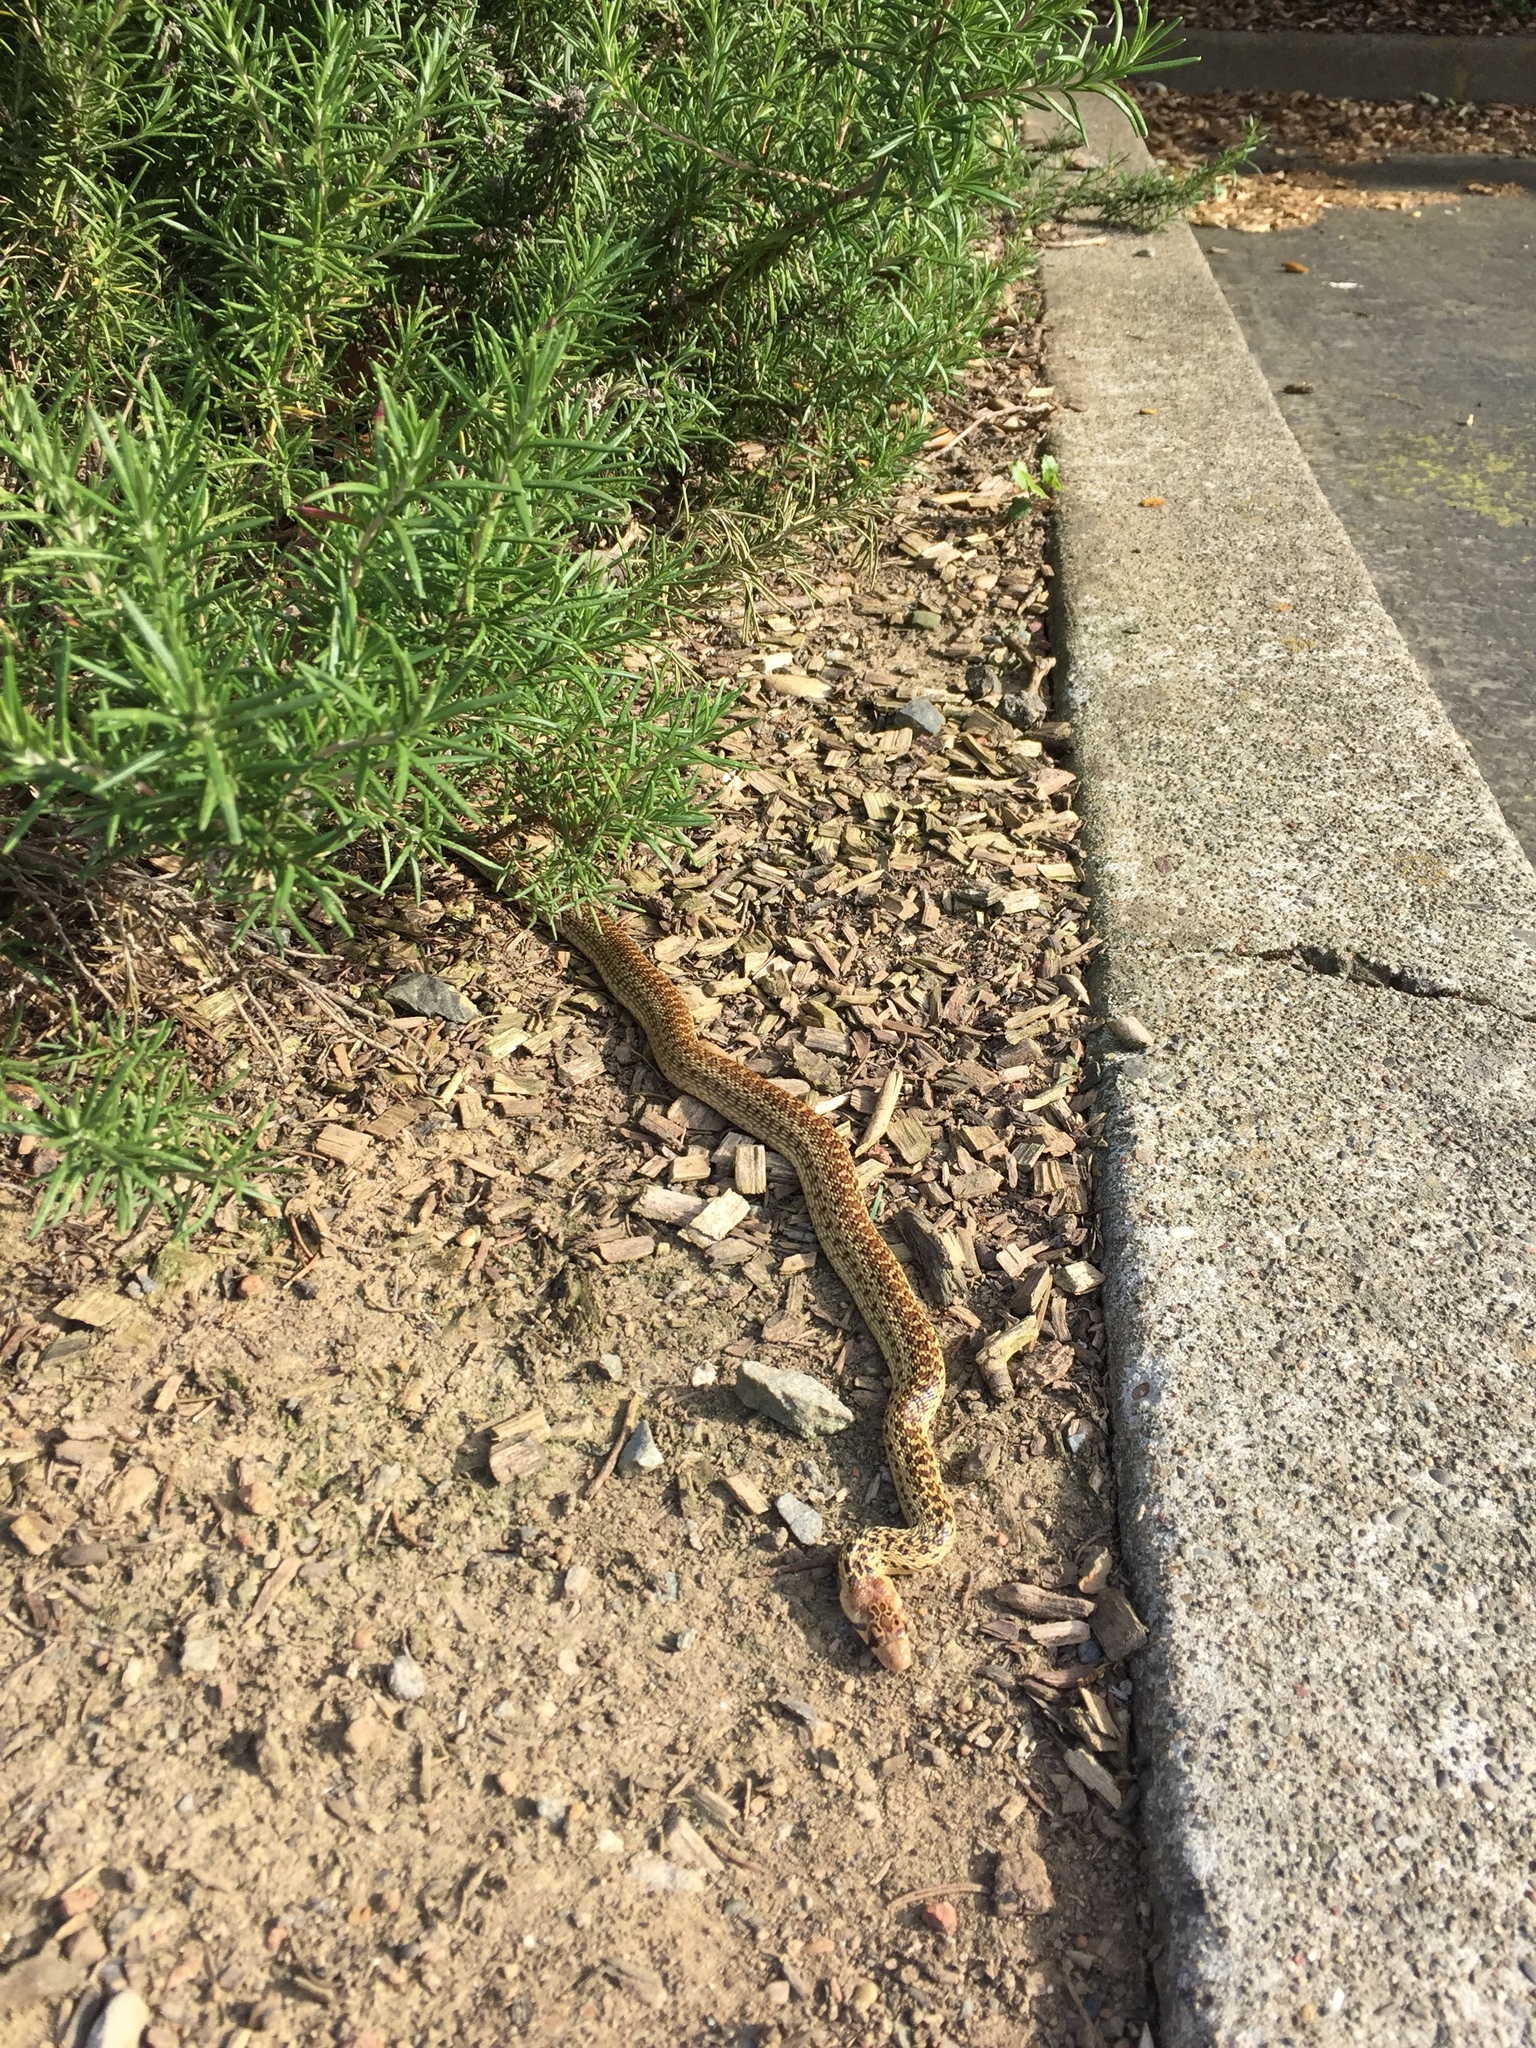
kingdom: Animalia
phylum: Chordata
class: Squamata
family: Colubridae
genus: Pituophis
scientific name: Pituophis catenifer
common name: Gopher snake
